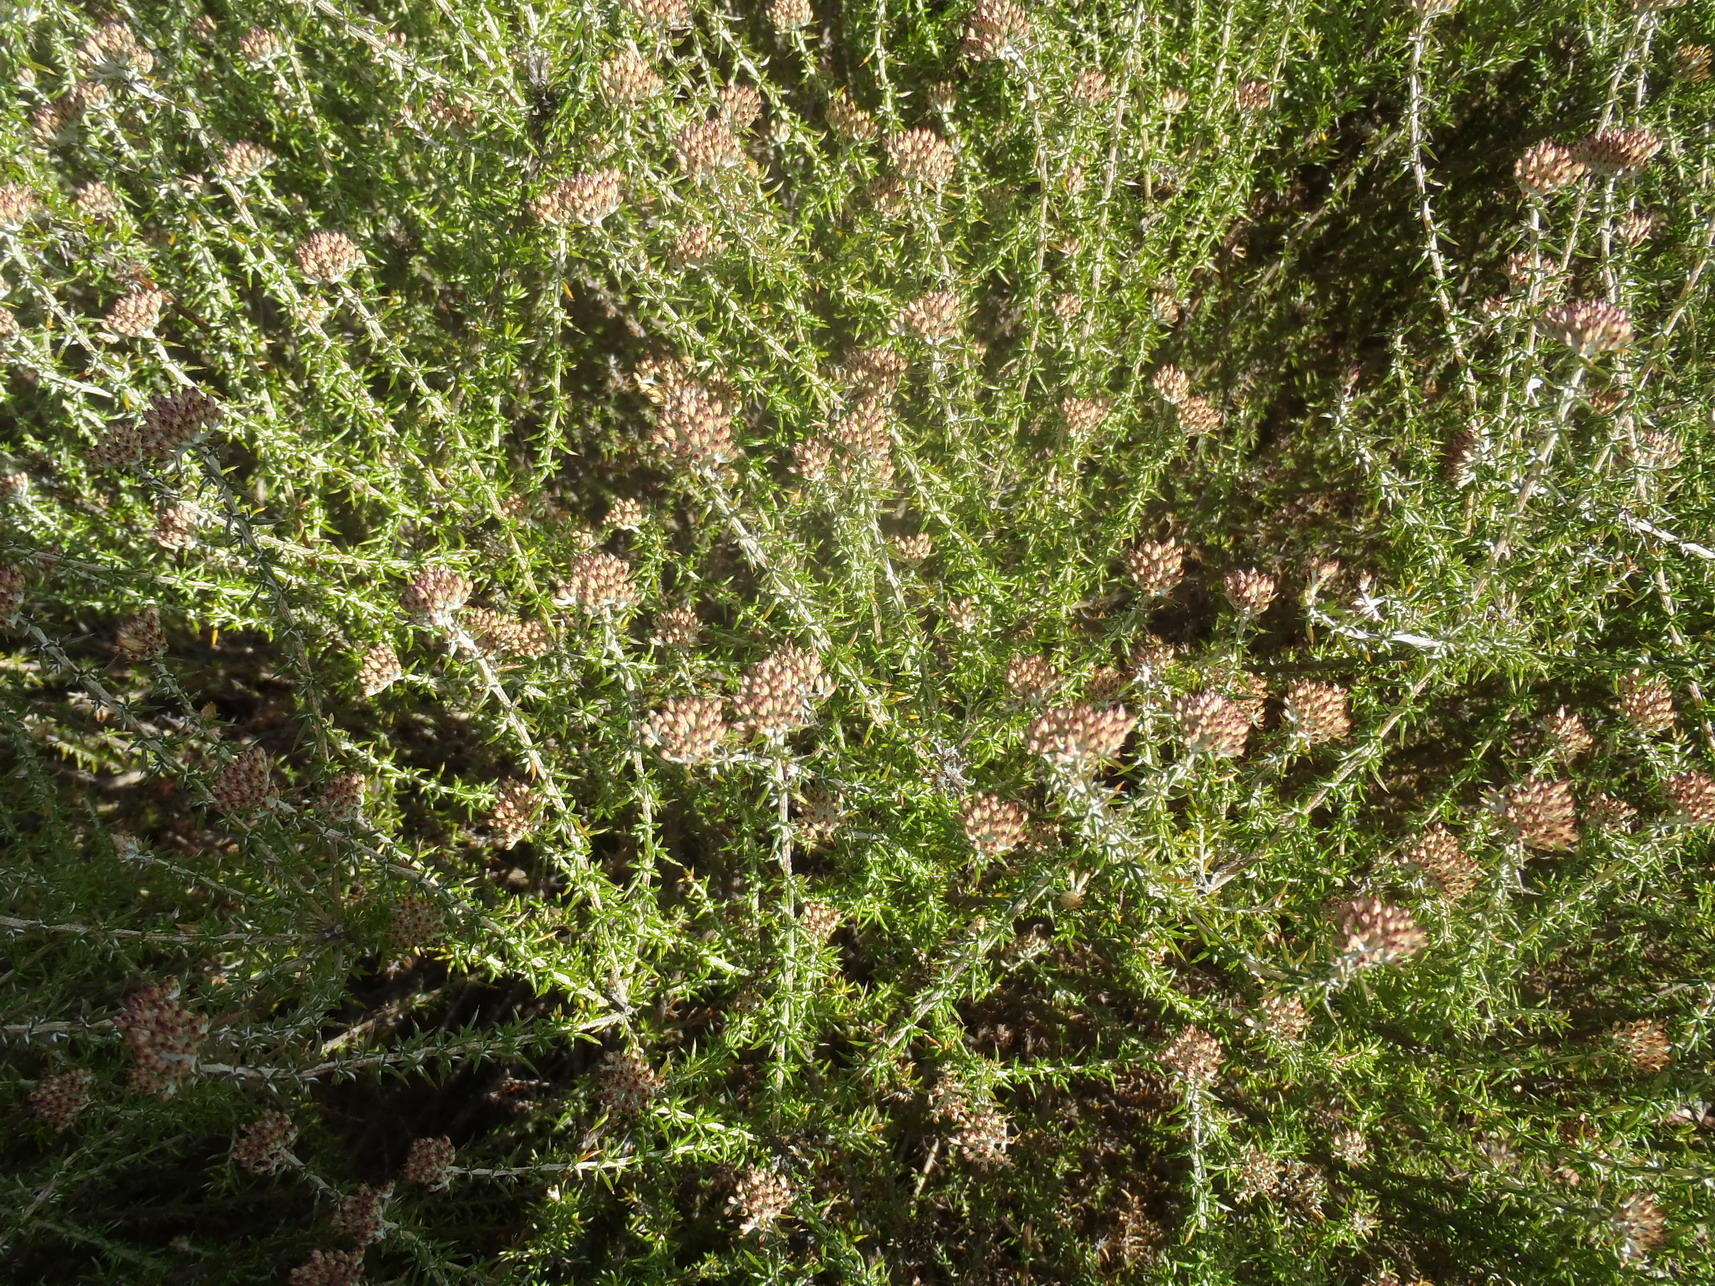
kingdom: Plantae
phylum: Tracheophyta
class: Magnoliopsida
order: Asterales
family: Asteraceae
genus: Metalasia
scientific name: Metalasia massonii
